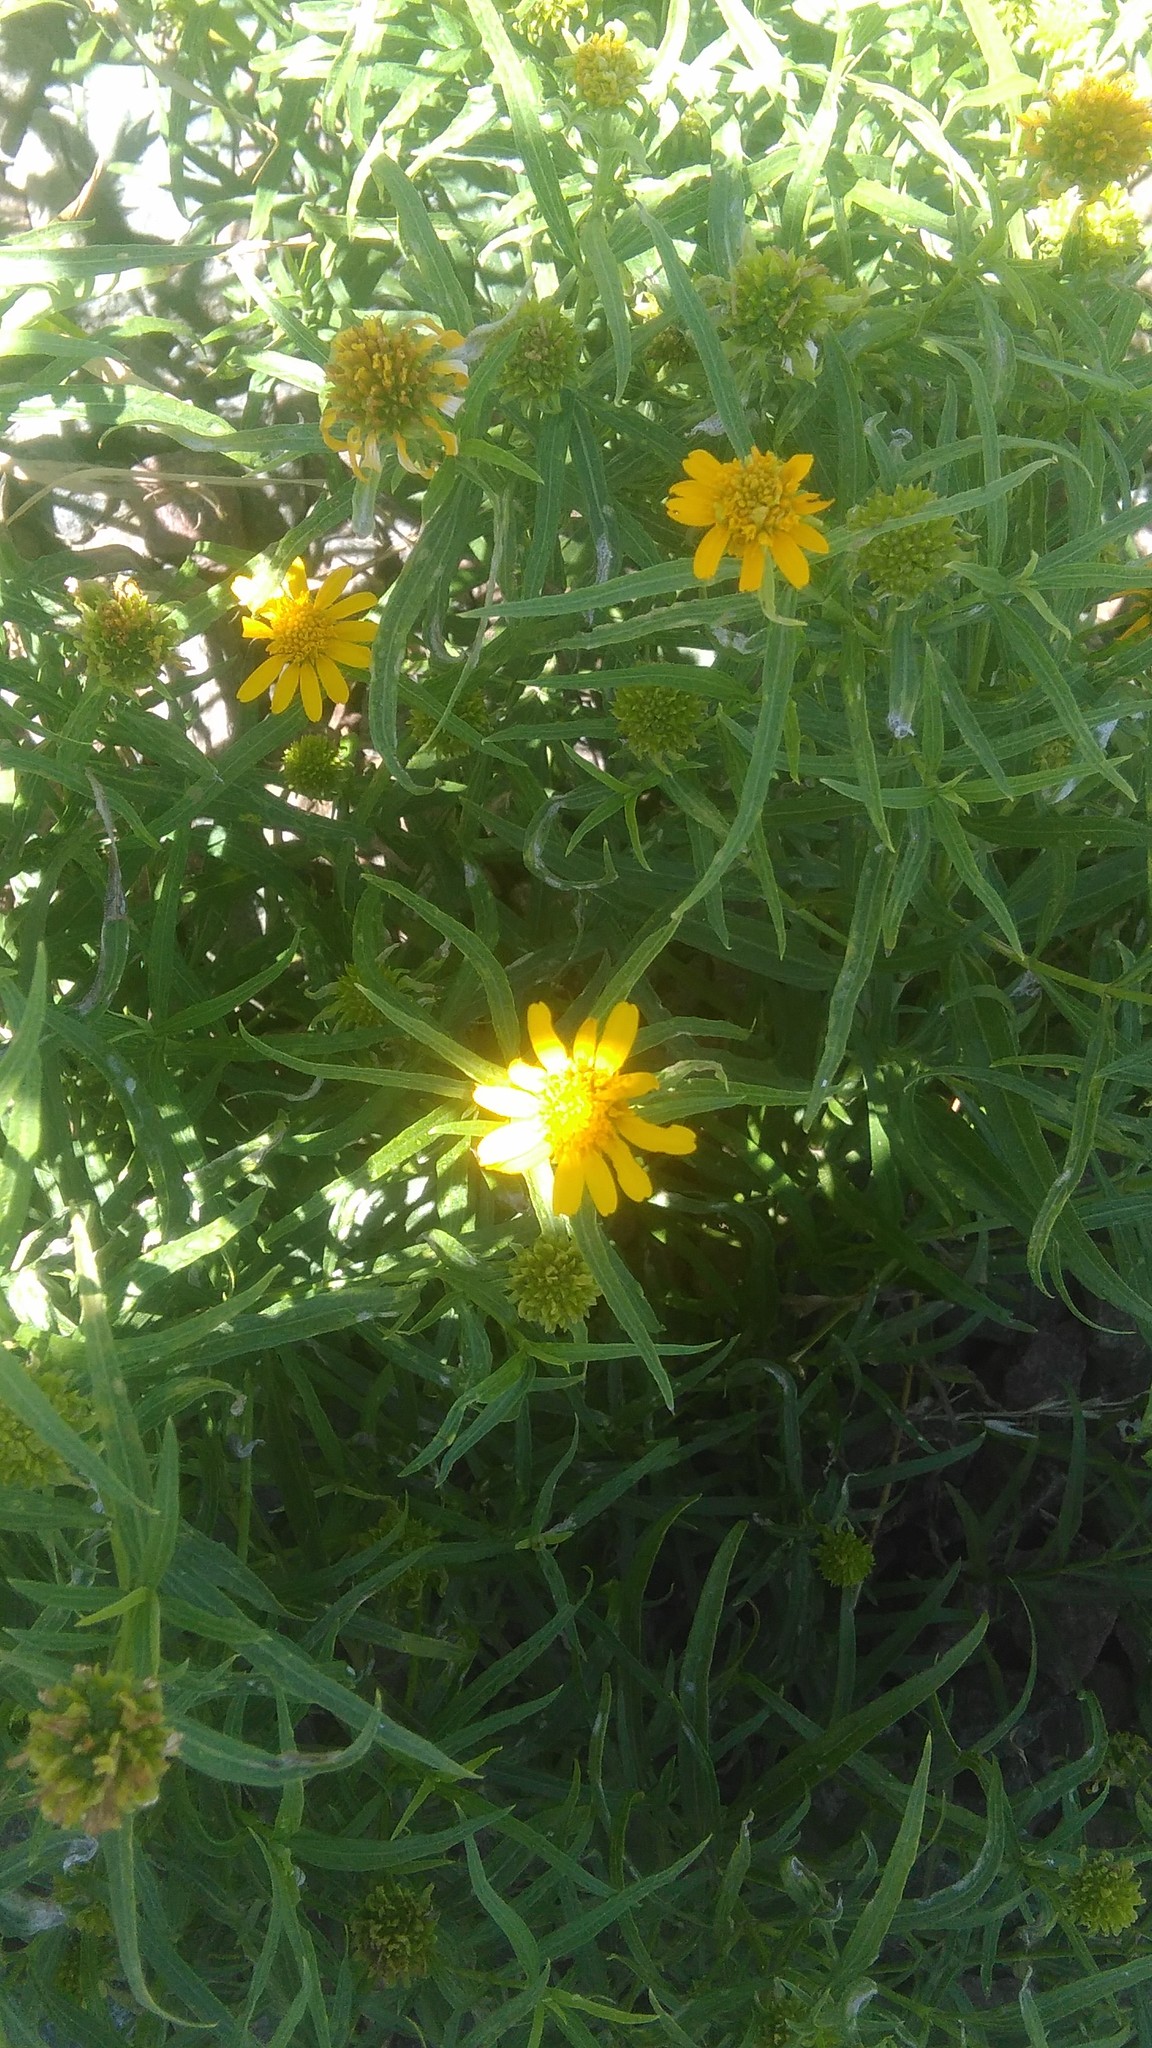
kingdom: Plantae
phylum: Tracheophyta
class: Magnoliopsida
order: Asterales
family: Asteraceae
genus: Pascalia
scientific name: Pascalia glauca
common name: Beach creeping oxeye
